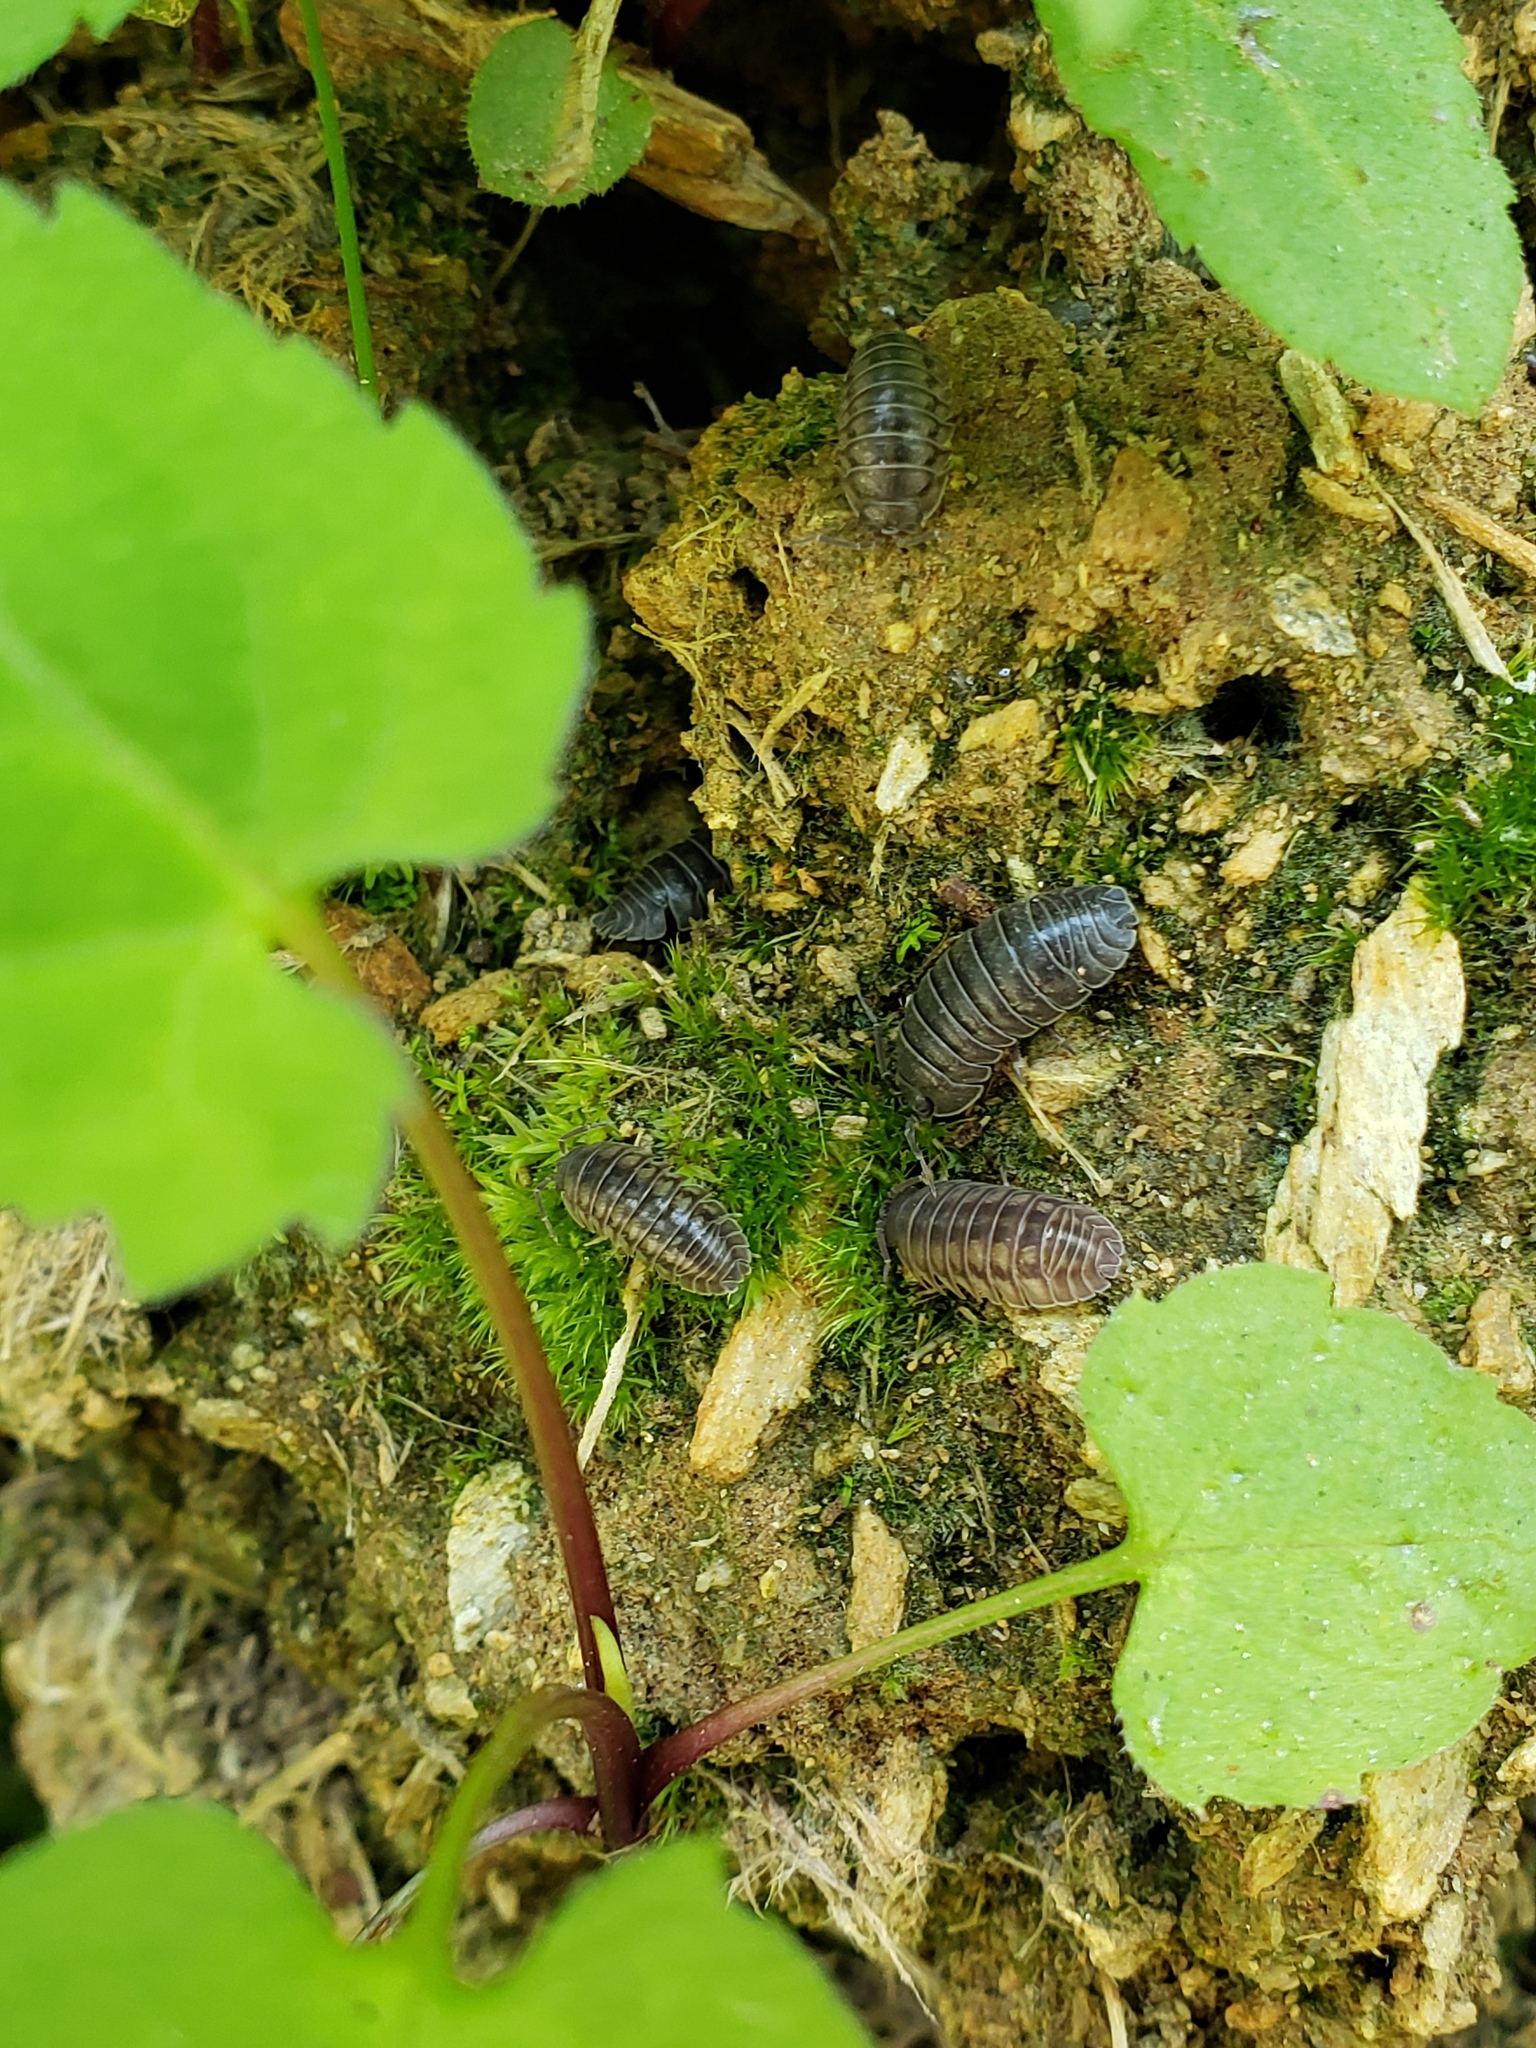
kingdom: Animalia
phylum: Arthropoda
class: Malacostraca
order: Isopoda
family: Armadillidiidae
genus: Armadillidium
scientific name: Armadillidium nasatum
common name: Isopod
